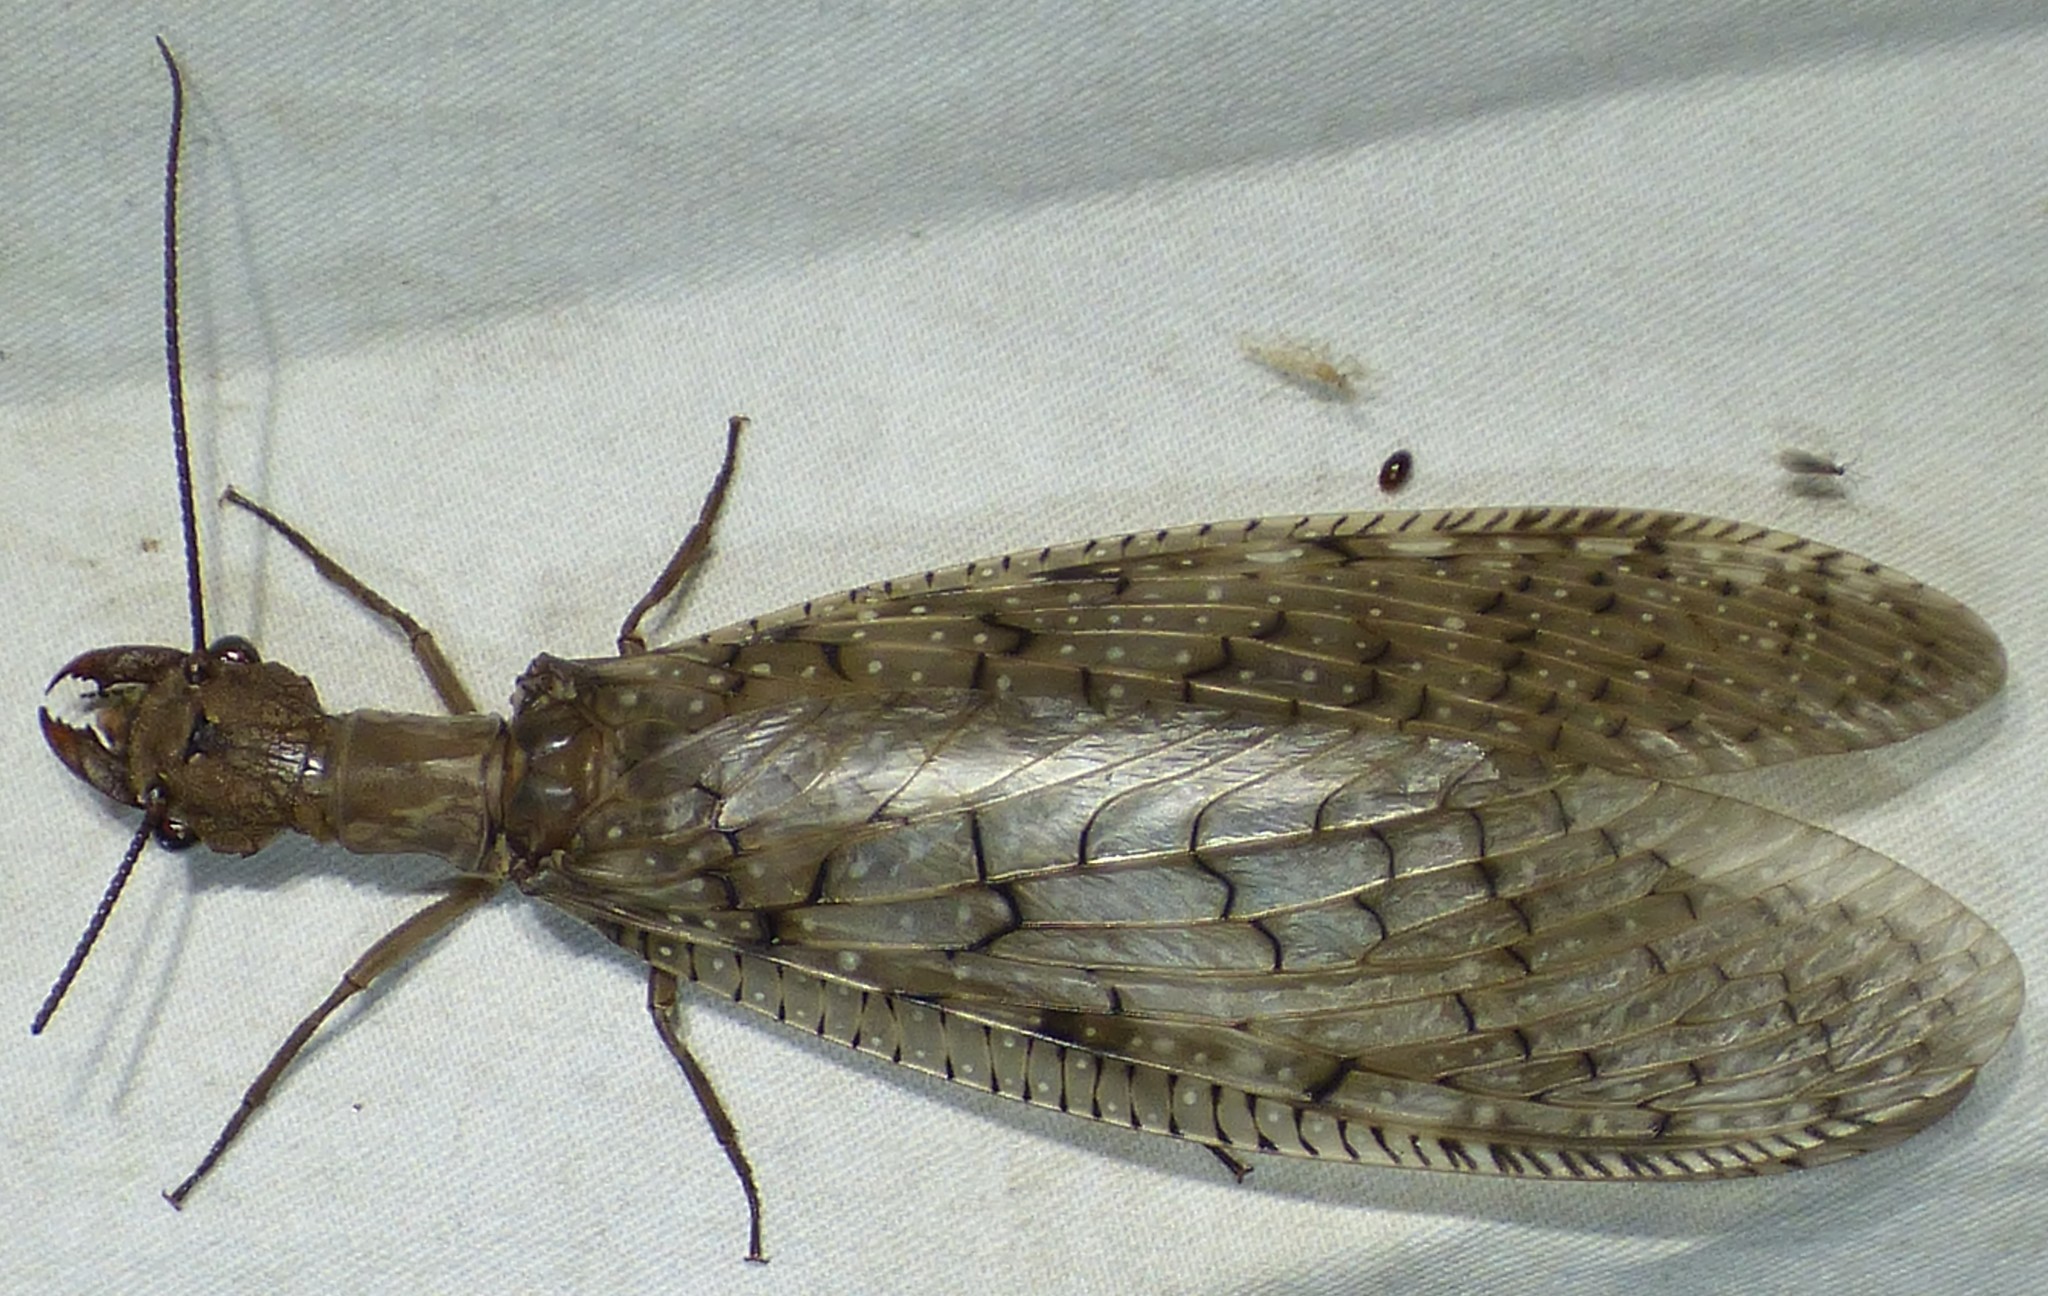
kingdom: Animalia
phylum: Arthropoda
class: Insecta
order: Megaloptera
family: Corydalidae
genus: Corydalus
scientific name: Corydalus cornutus
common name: Dobsonfly
